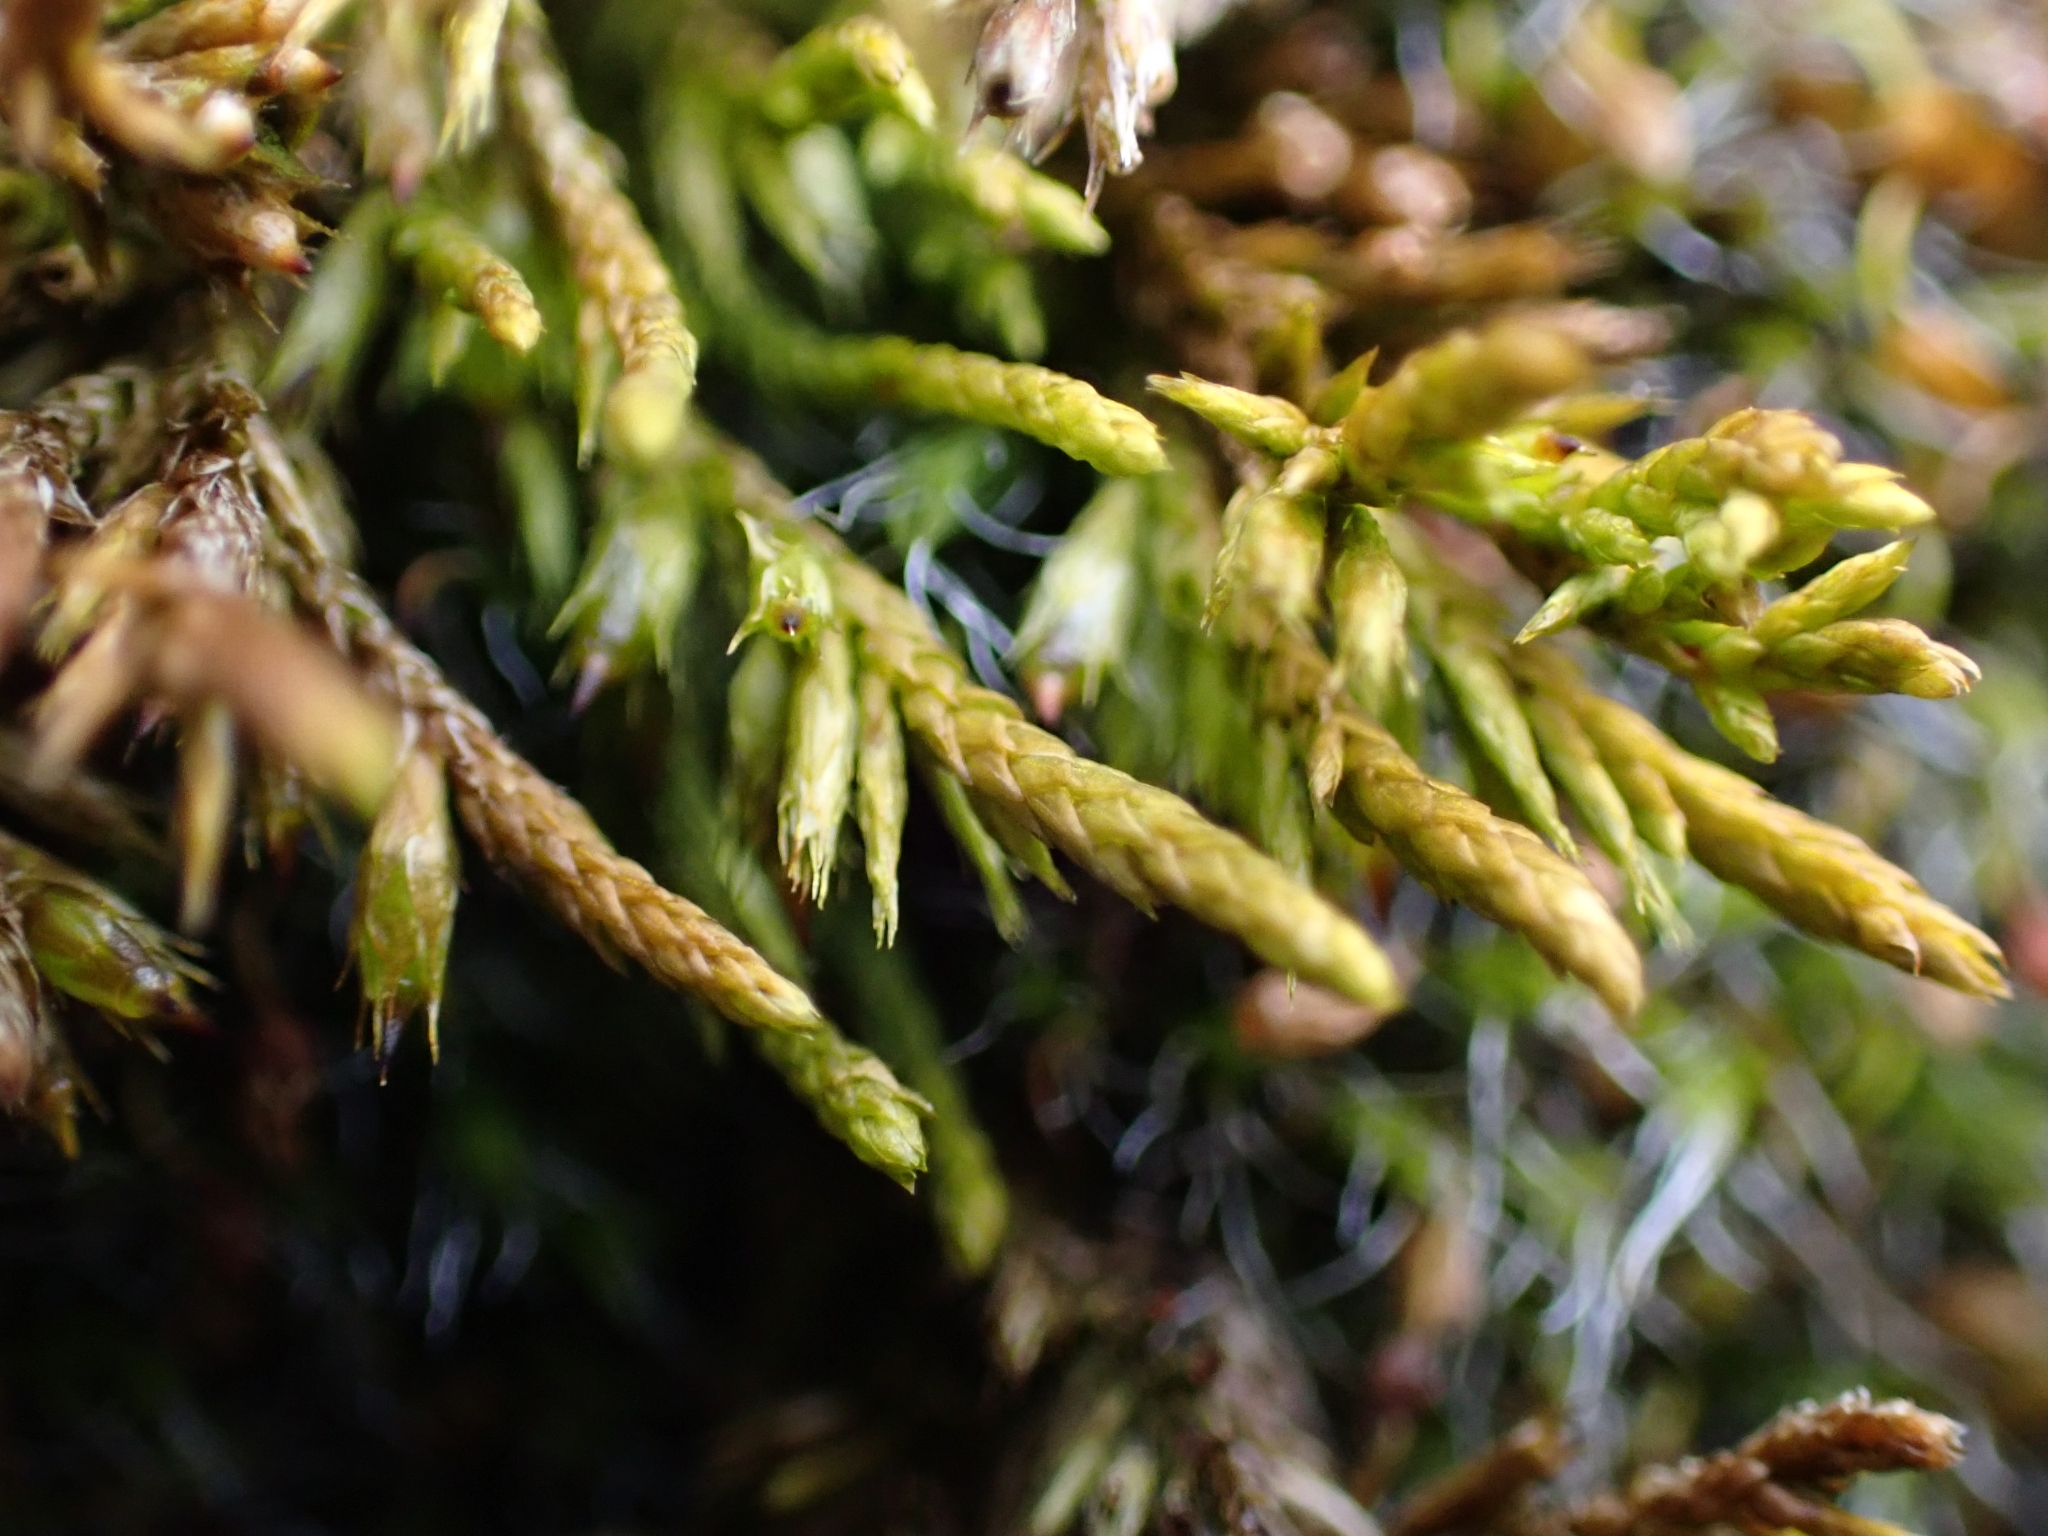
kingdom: Plantae
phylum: Bryophyta
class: Bryopsida
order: Hypnales
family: Cryphaeaceae
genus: Cryphaea
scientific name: Cryphaea heteromalla
